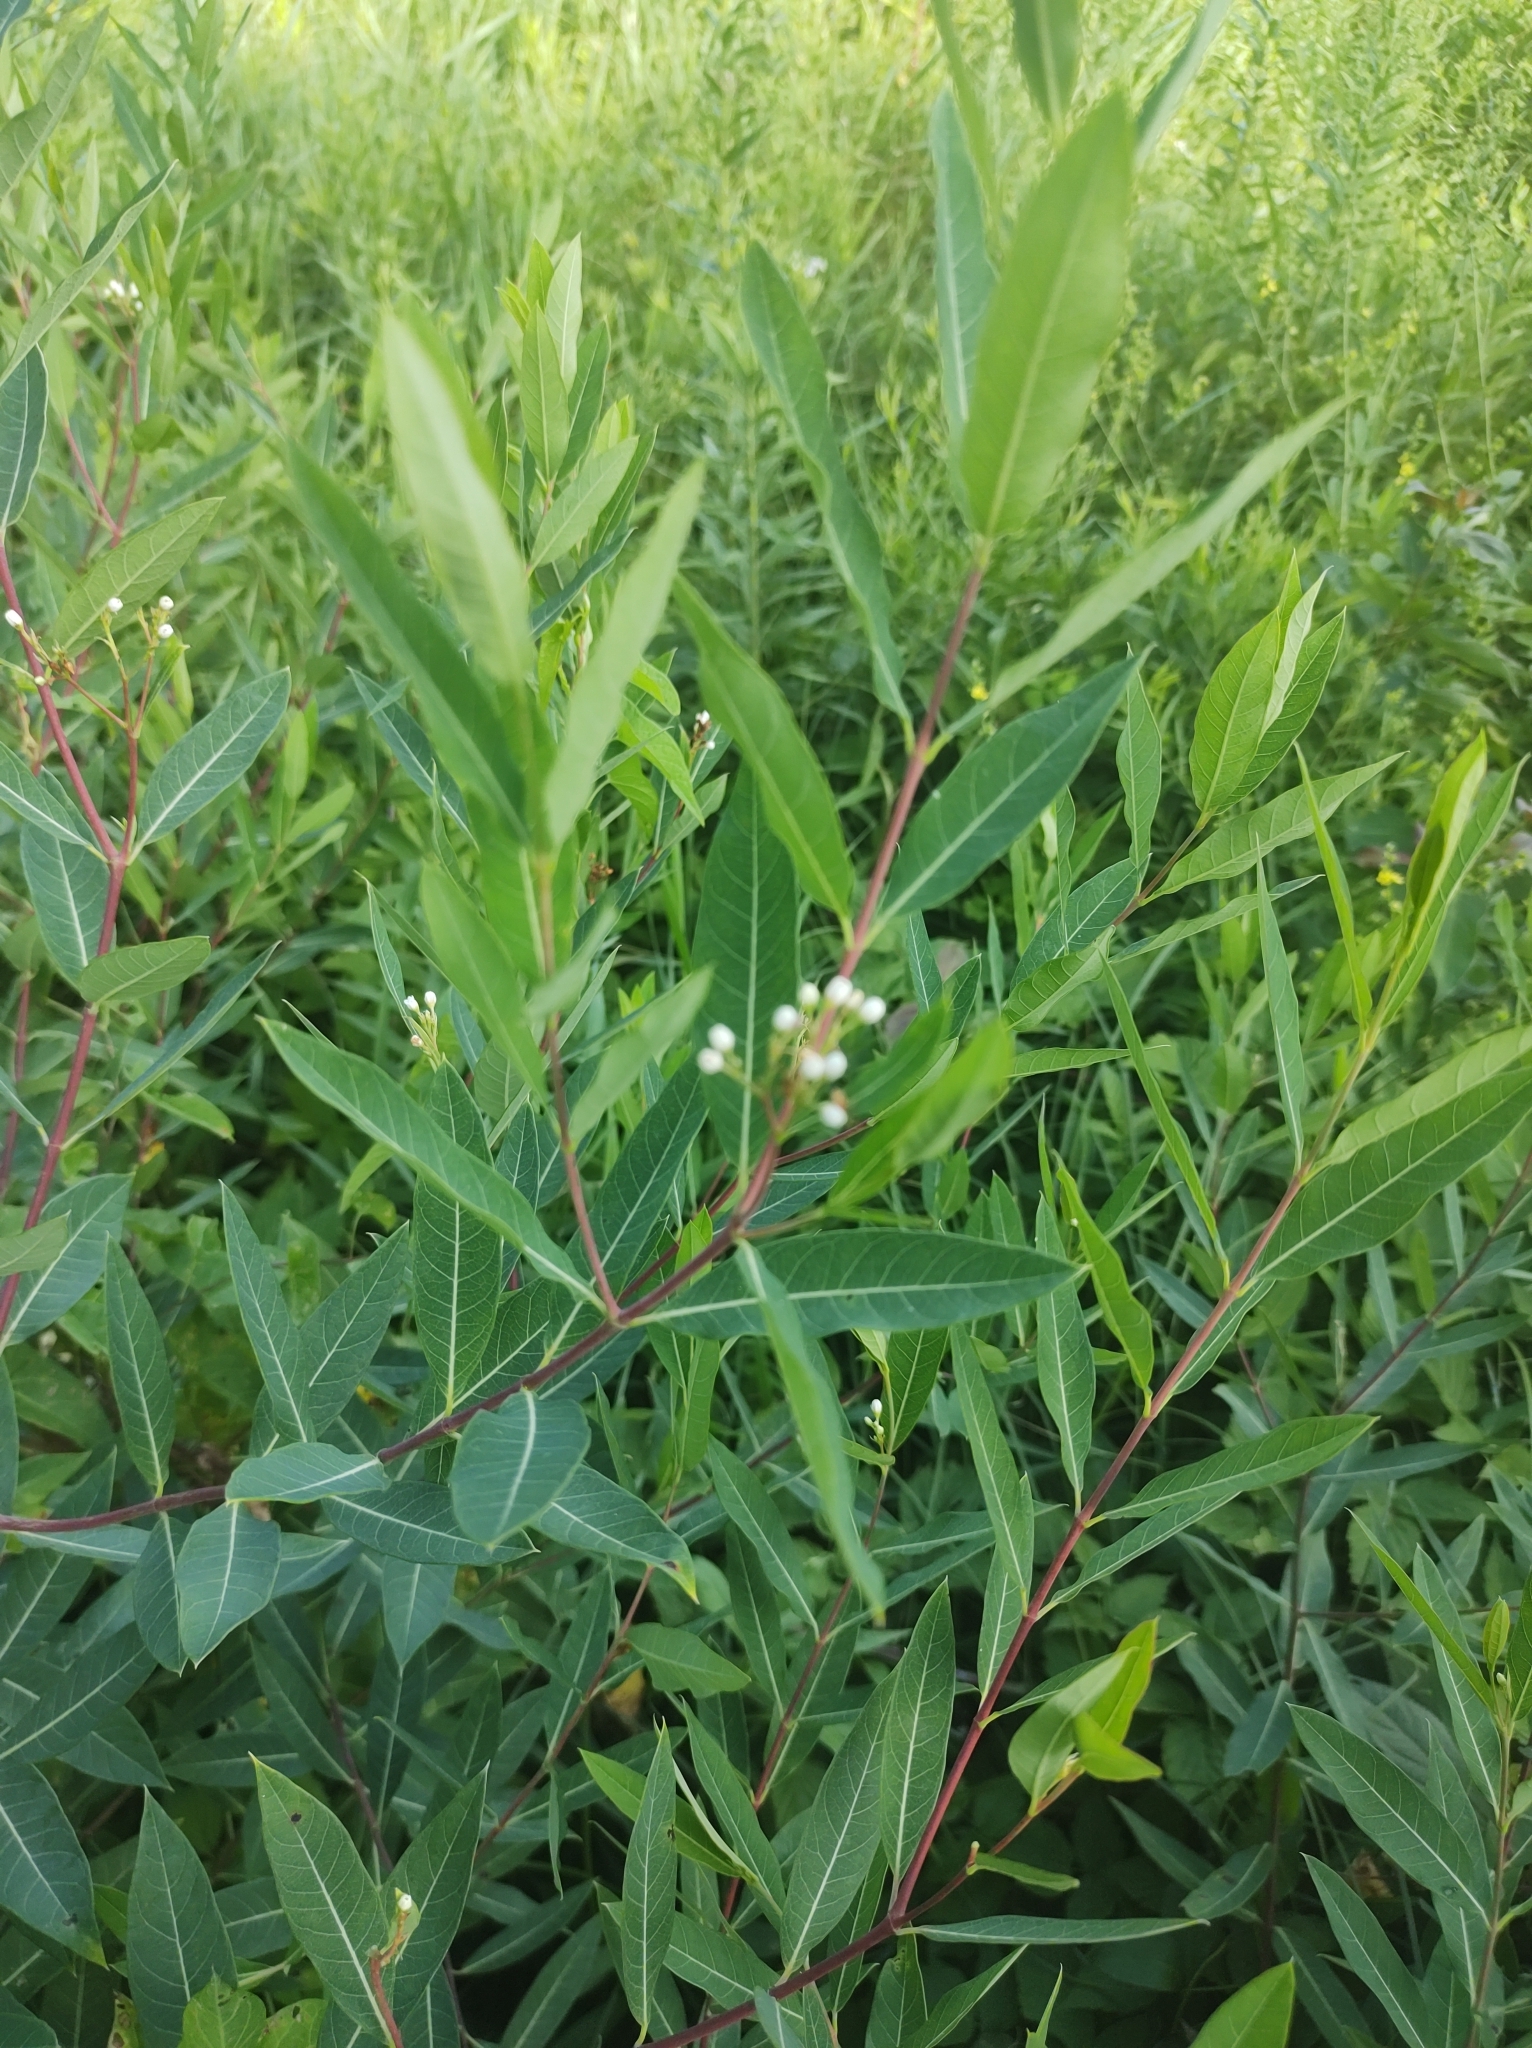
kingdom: Plantae
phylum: Tracheophyta
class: Magnoliopsida
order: Gentianales
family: Apocynaceae
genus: Apocynum
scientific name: Apocynum cannabinum
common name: Hemp dogbane
